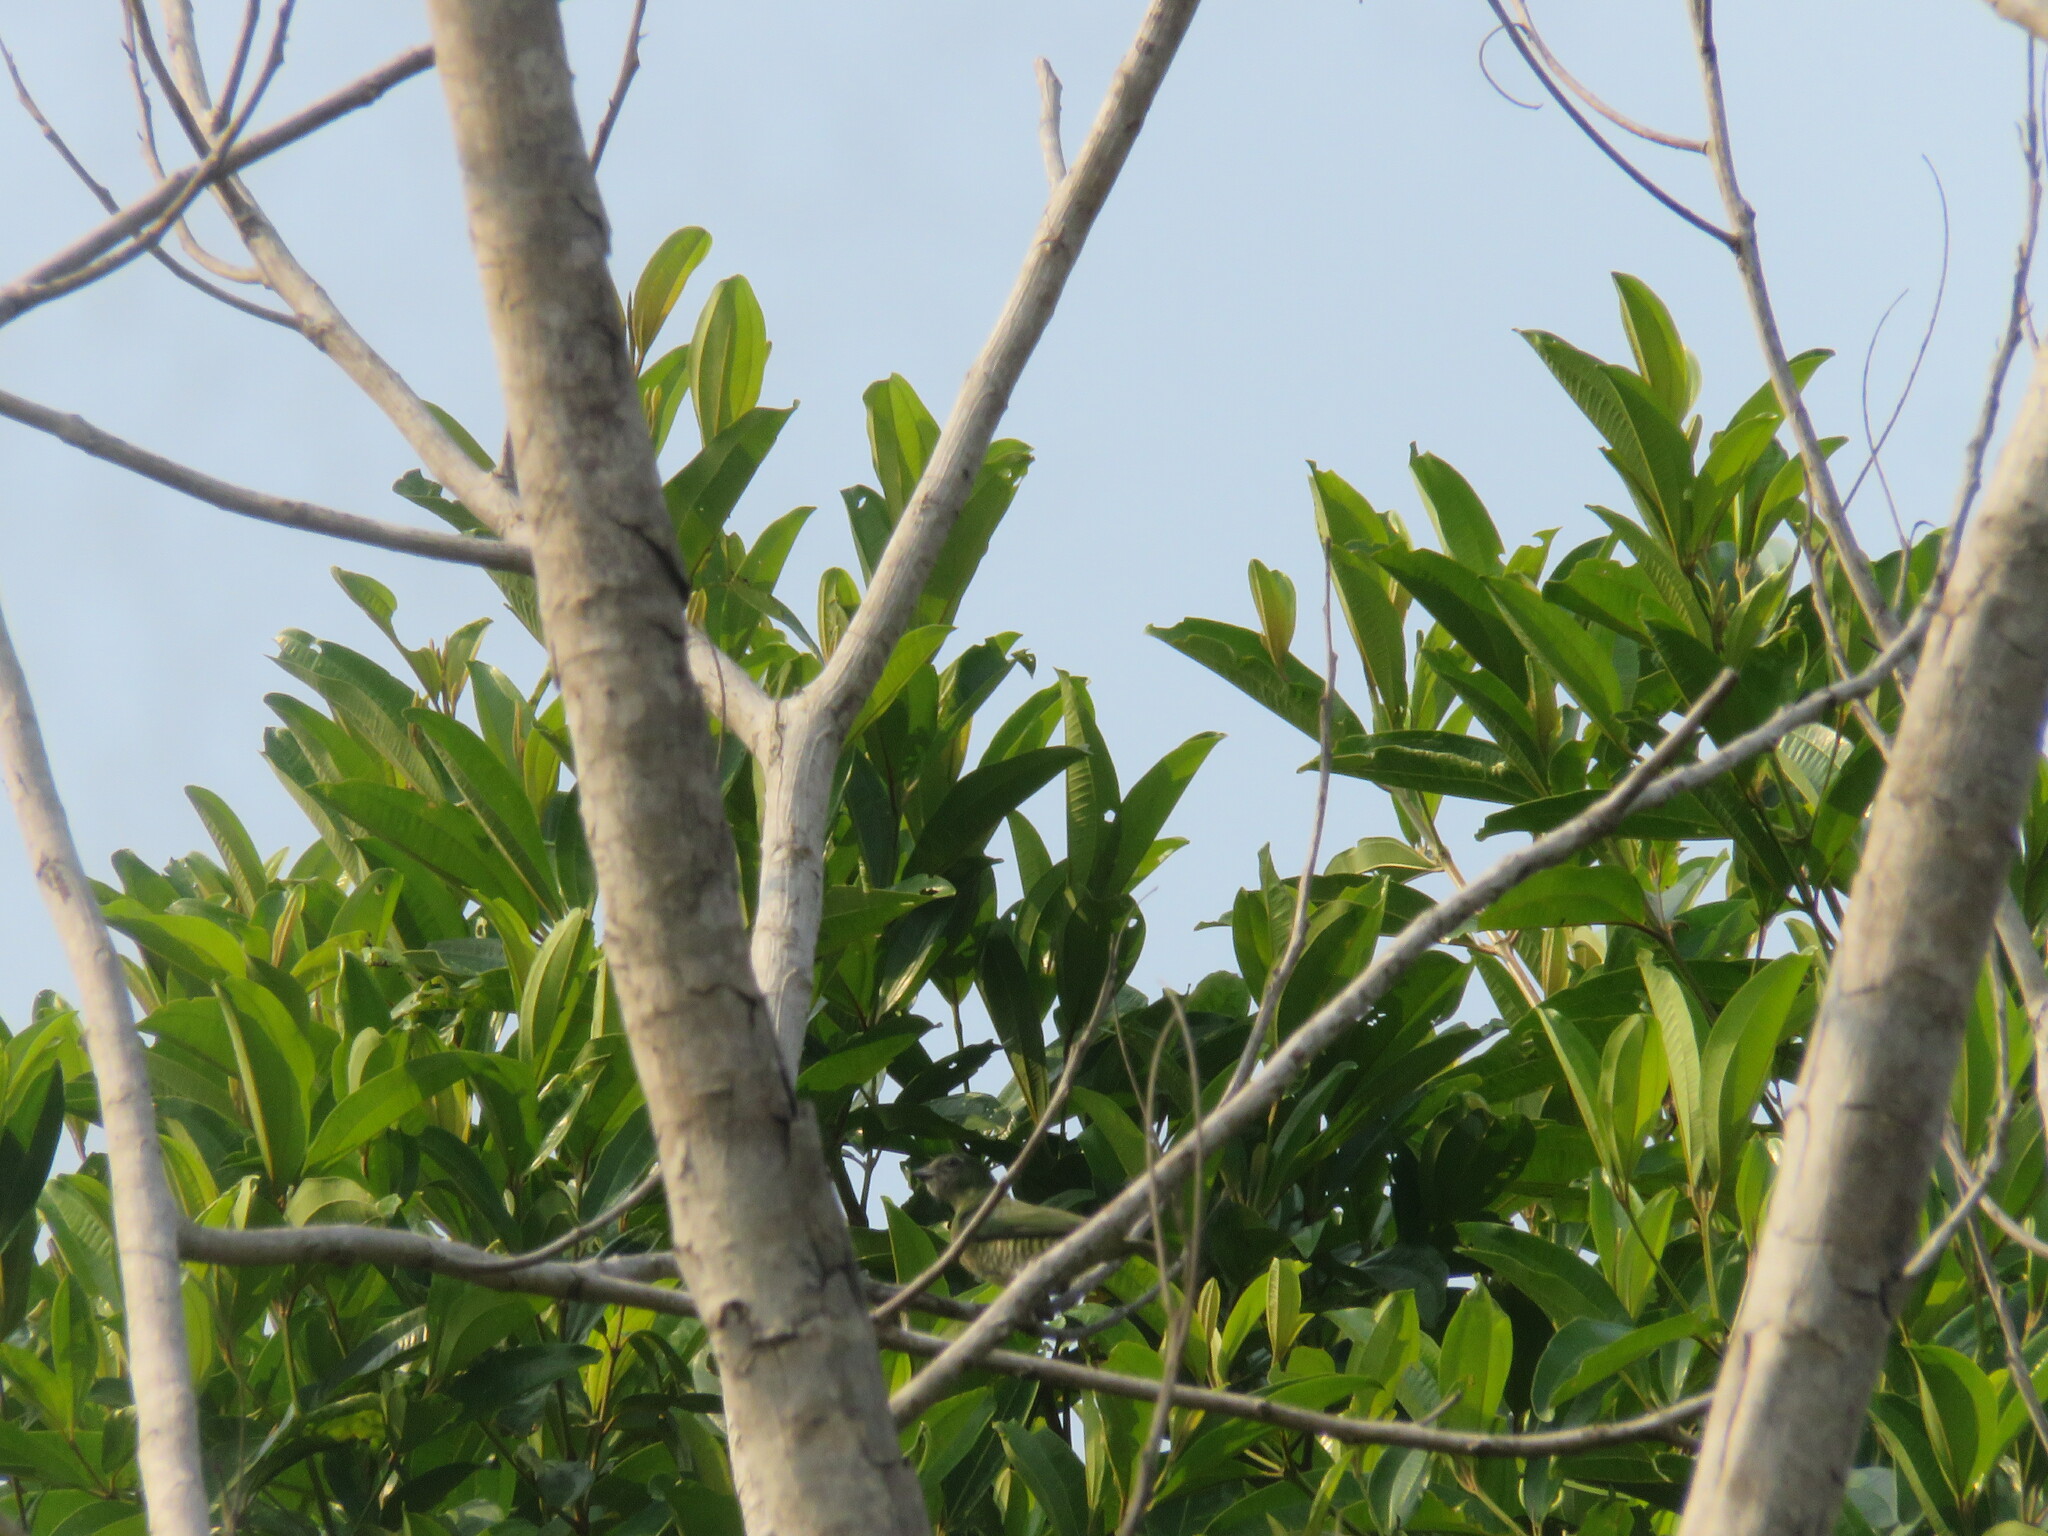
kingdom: Animalia
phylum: Chordata
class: Aves
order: Passeriformes
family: Thraupidae
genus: Tersina
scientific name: Tersina viridis
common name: Swallow tanager
